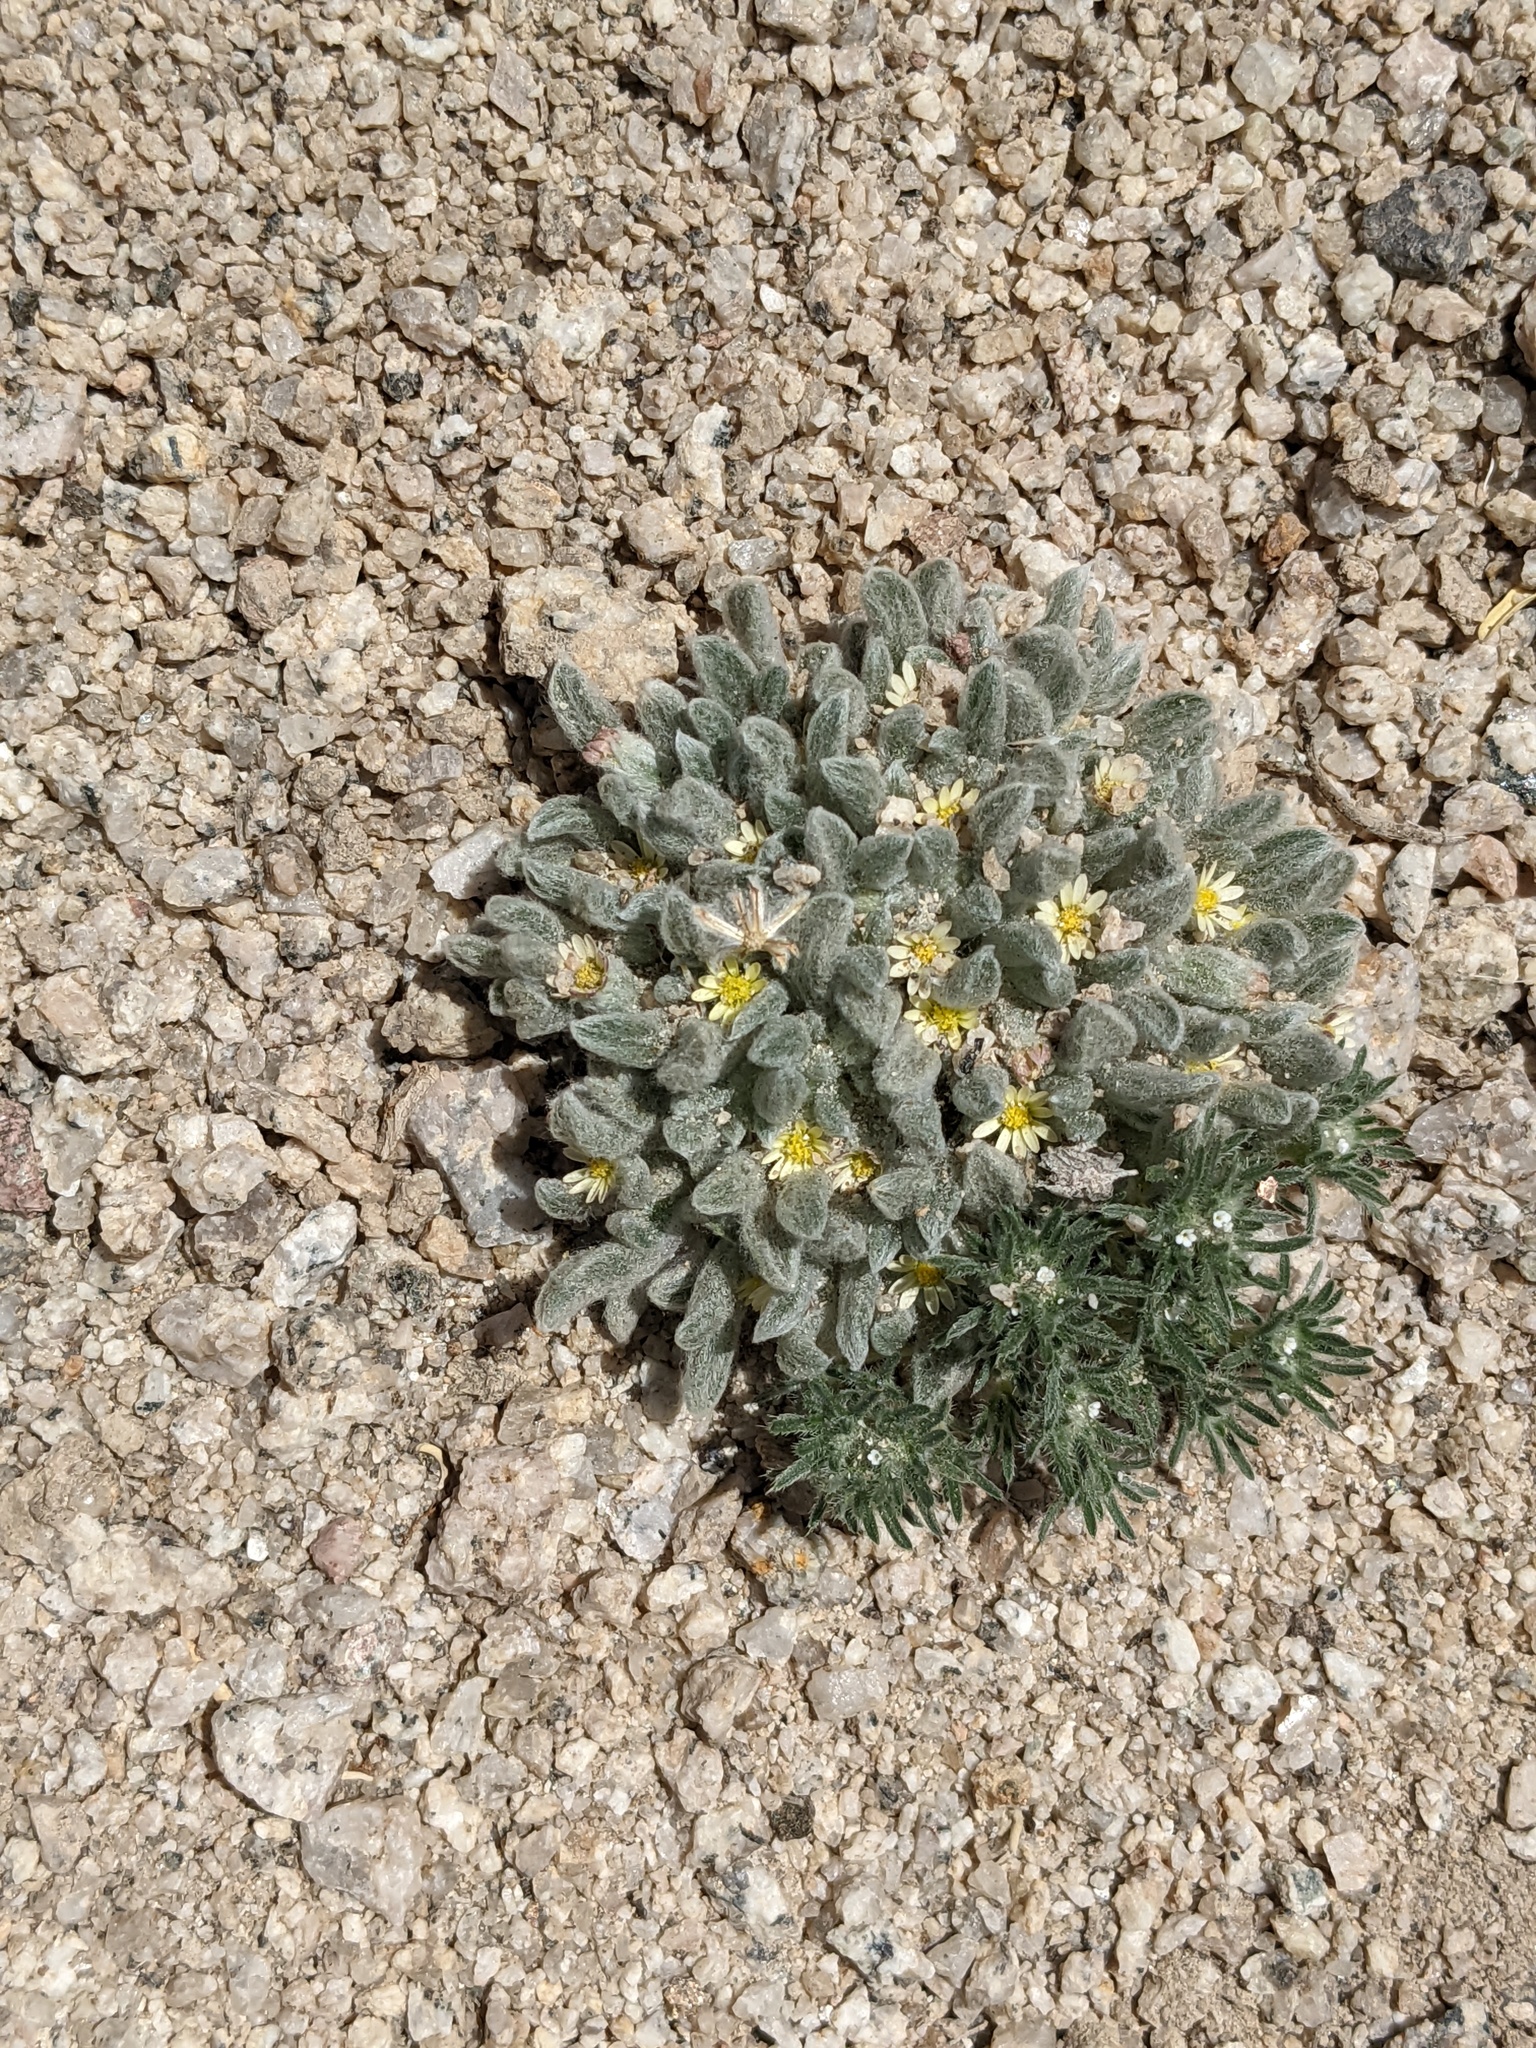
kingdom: Plantae
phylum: Tracheophyta
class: Magnoliopsida
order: Asterales
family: Asteraceae
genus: Eatonella
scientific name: Eatonella nivea
